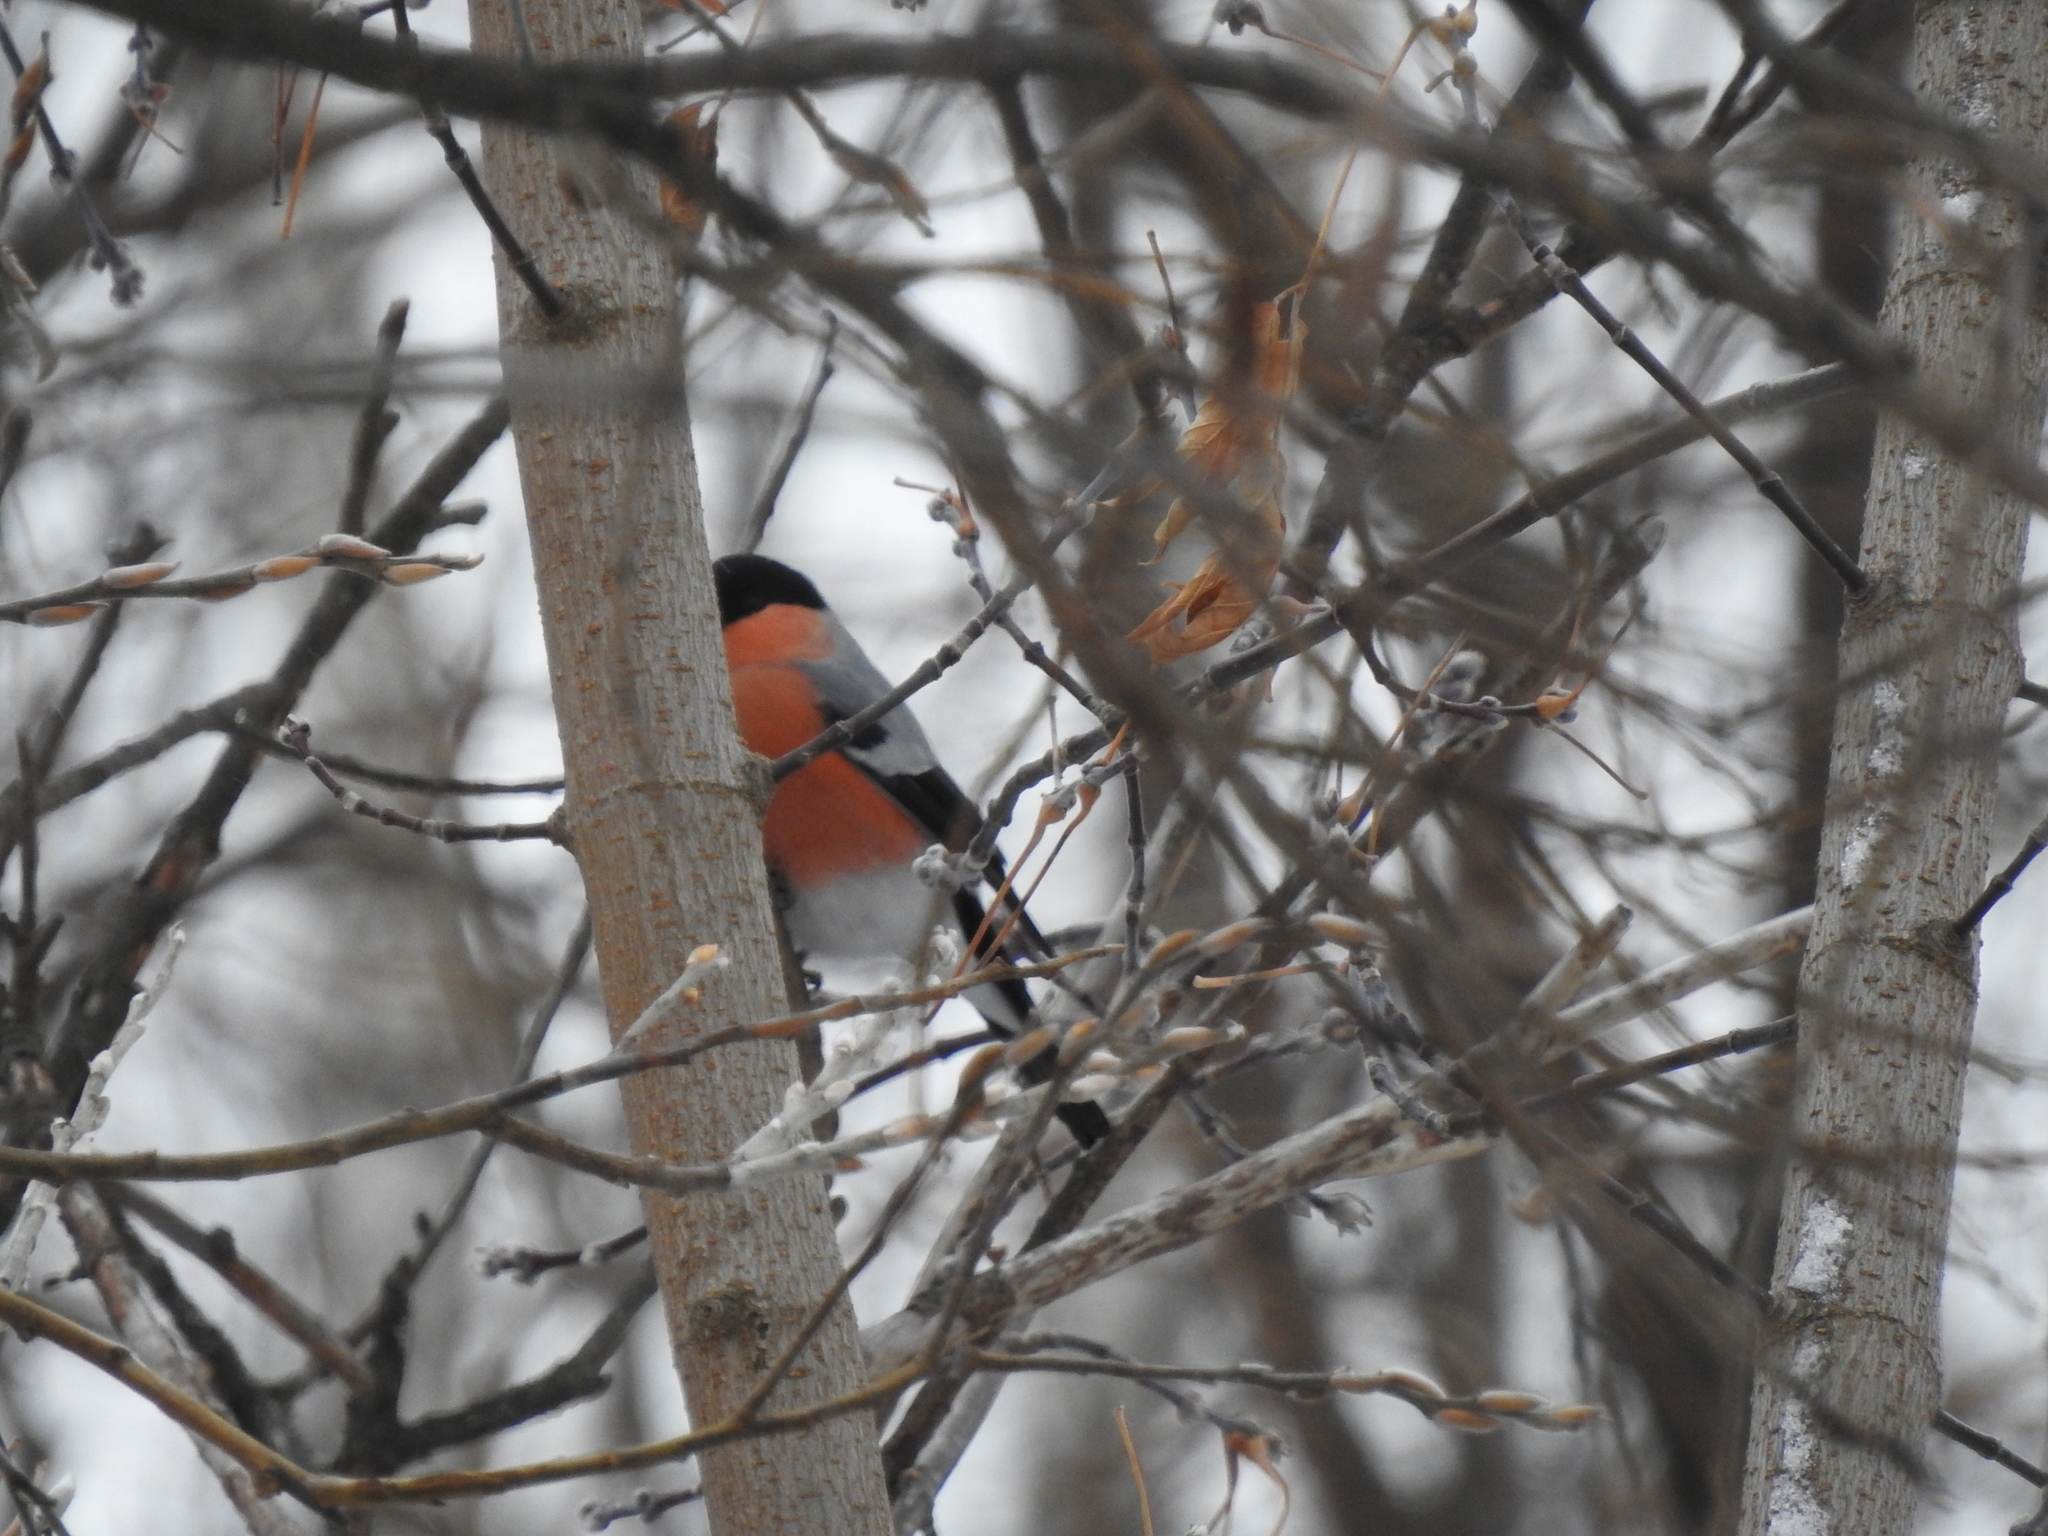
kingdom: Animalia
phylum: Chordata
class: Aves
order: Passeriformes
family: Fringillidae
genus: Pyrrhula
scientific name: Pyrrhula pyrrhula
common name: Eurasian bullfinch
